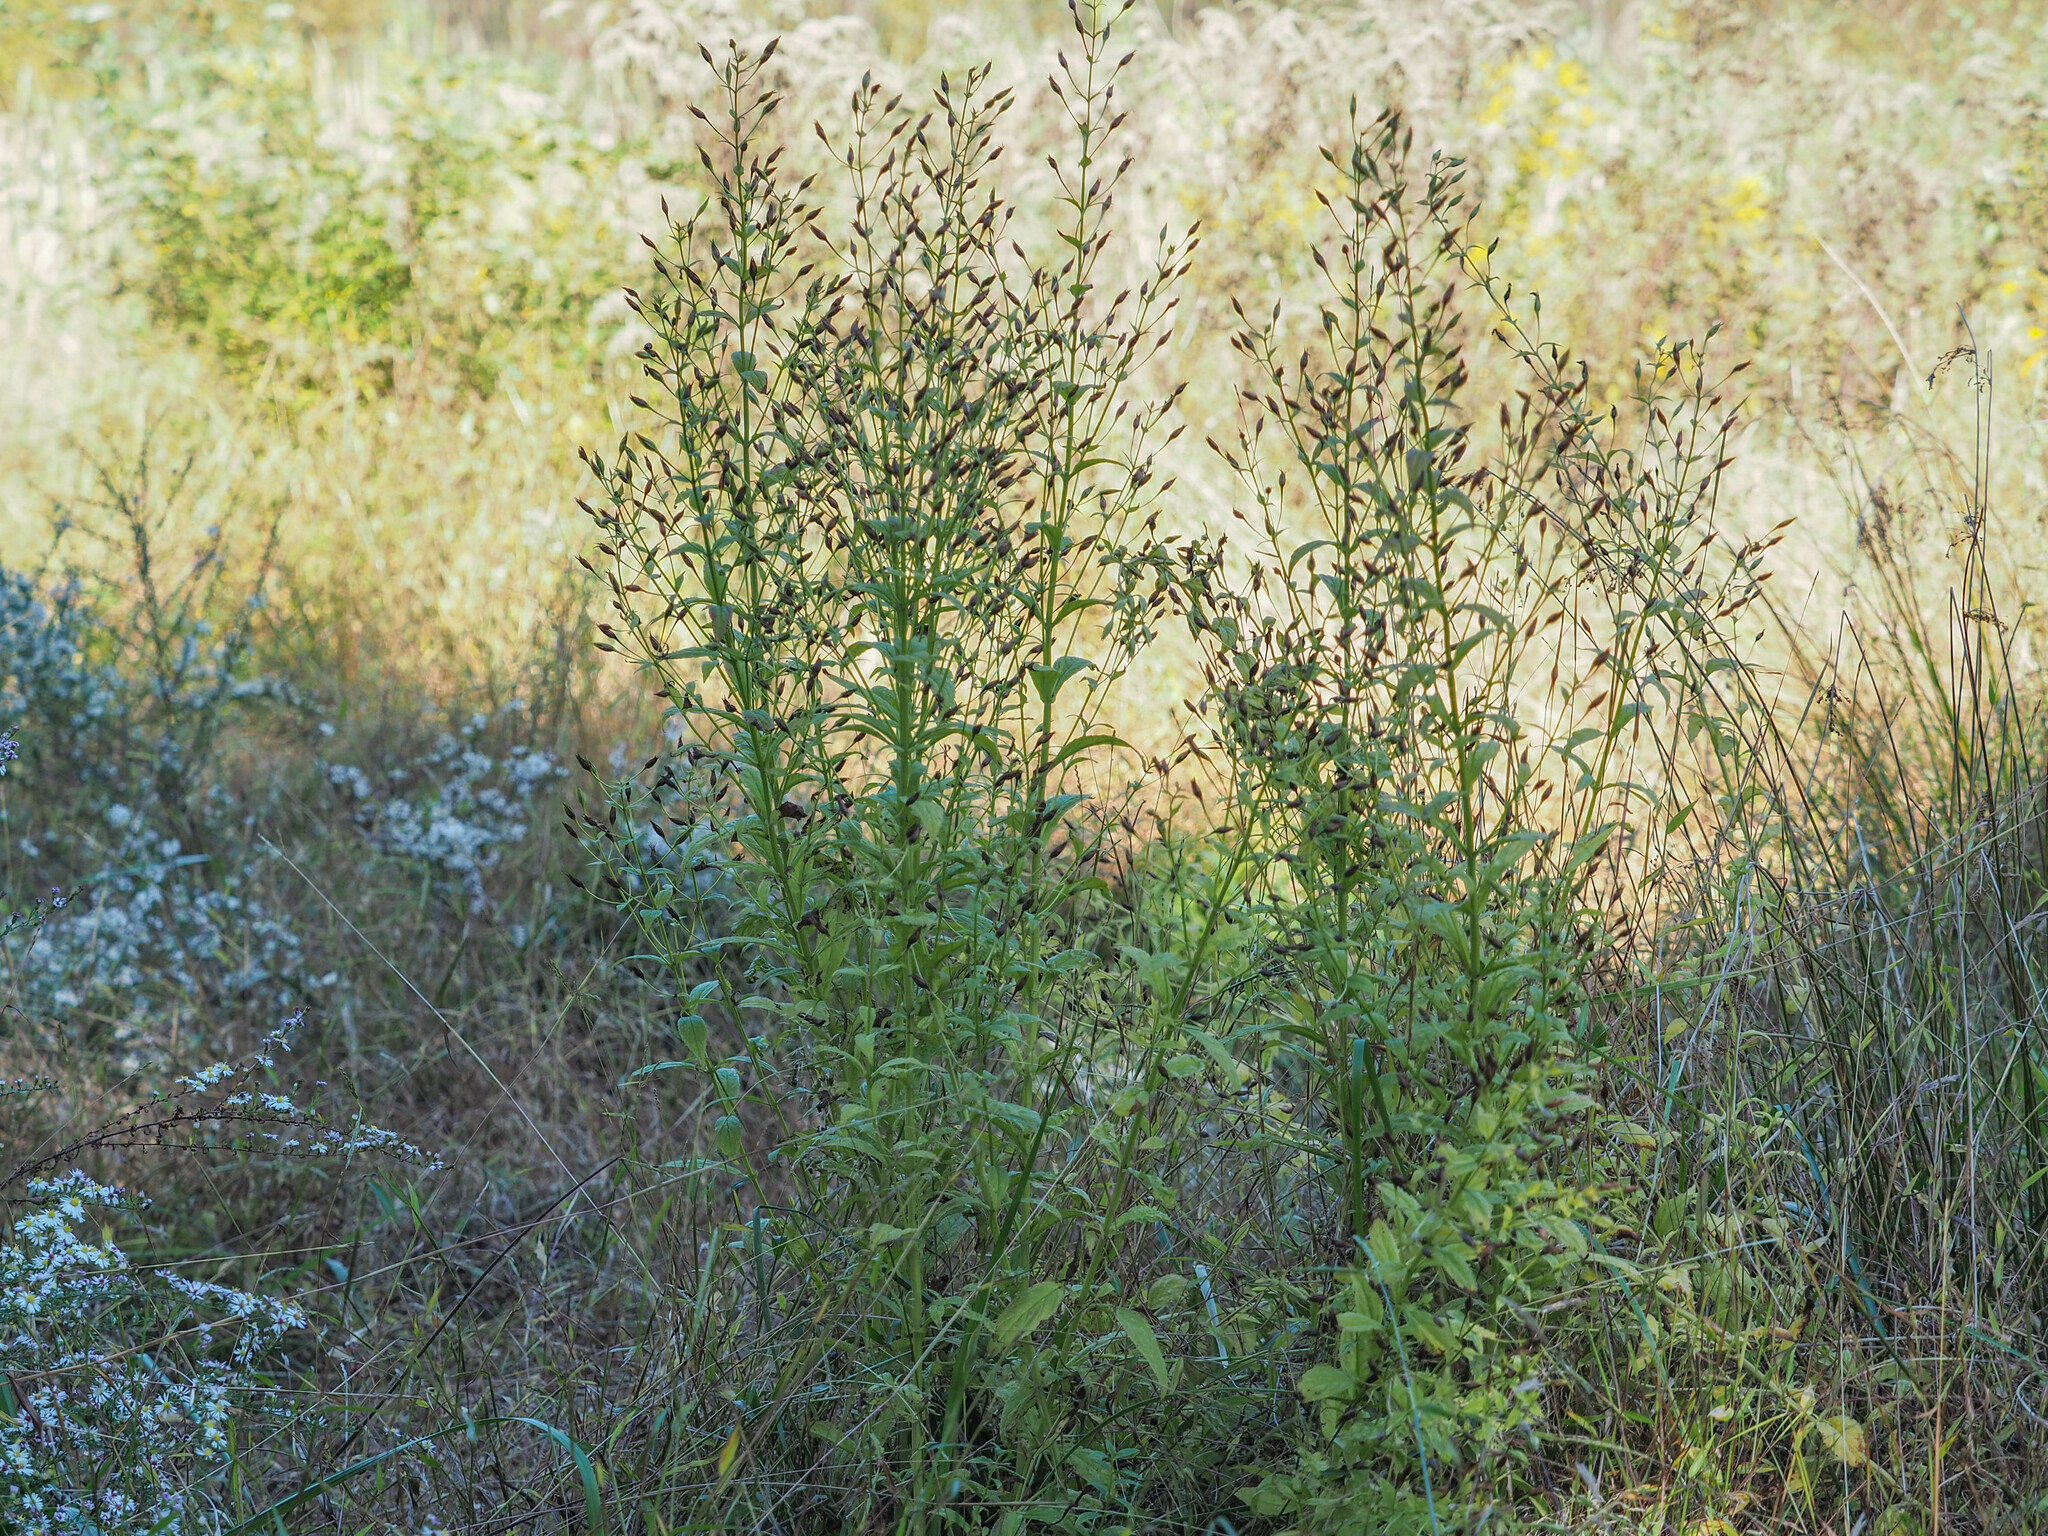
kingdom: Plantae
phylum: Tracheophyta
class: Magnoliopsida
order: Lamiales
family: Phrymaceae
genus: Mimulus
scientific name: Mimulus ringens
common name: Allegheny monkeyflower
